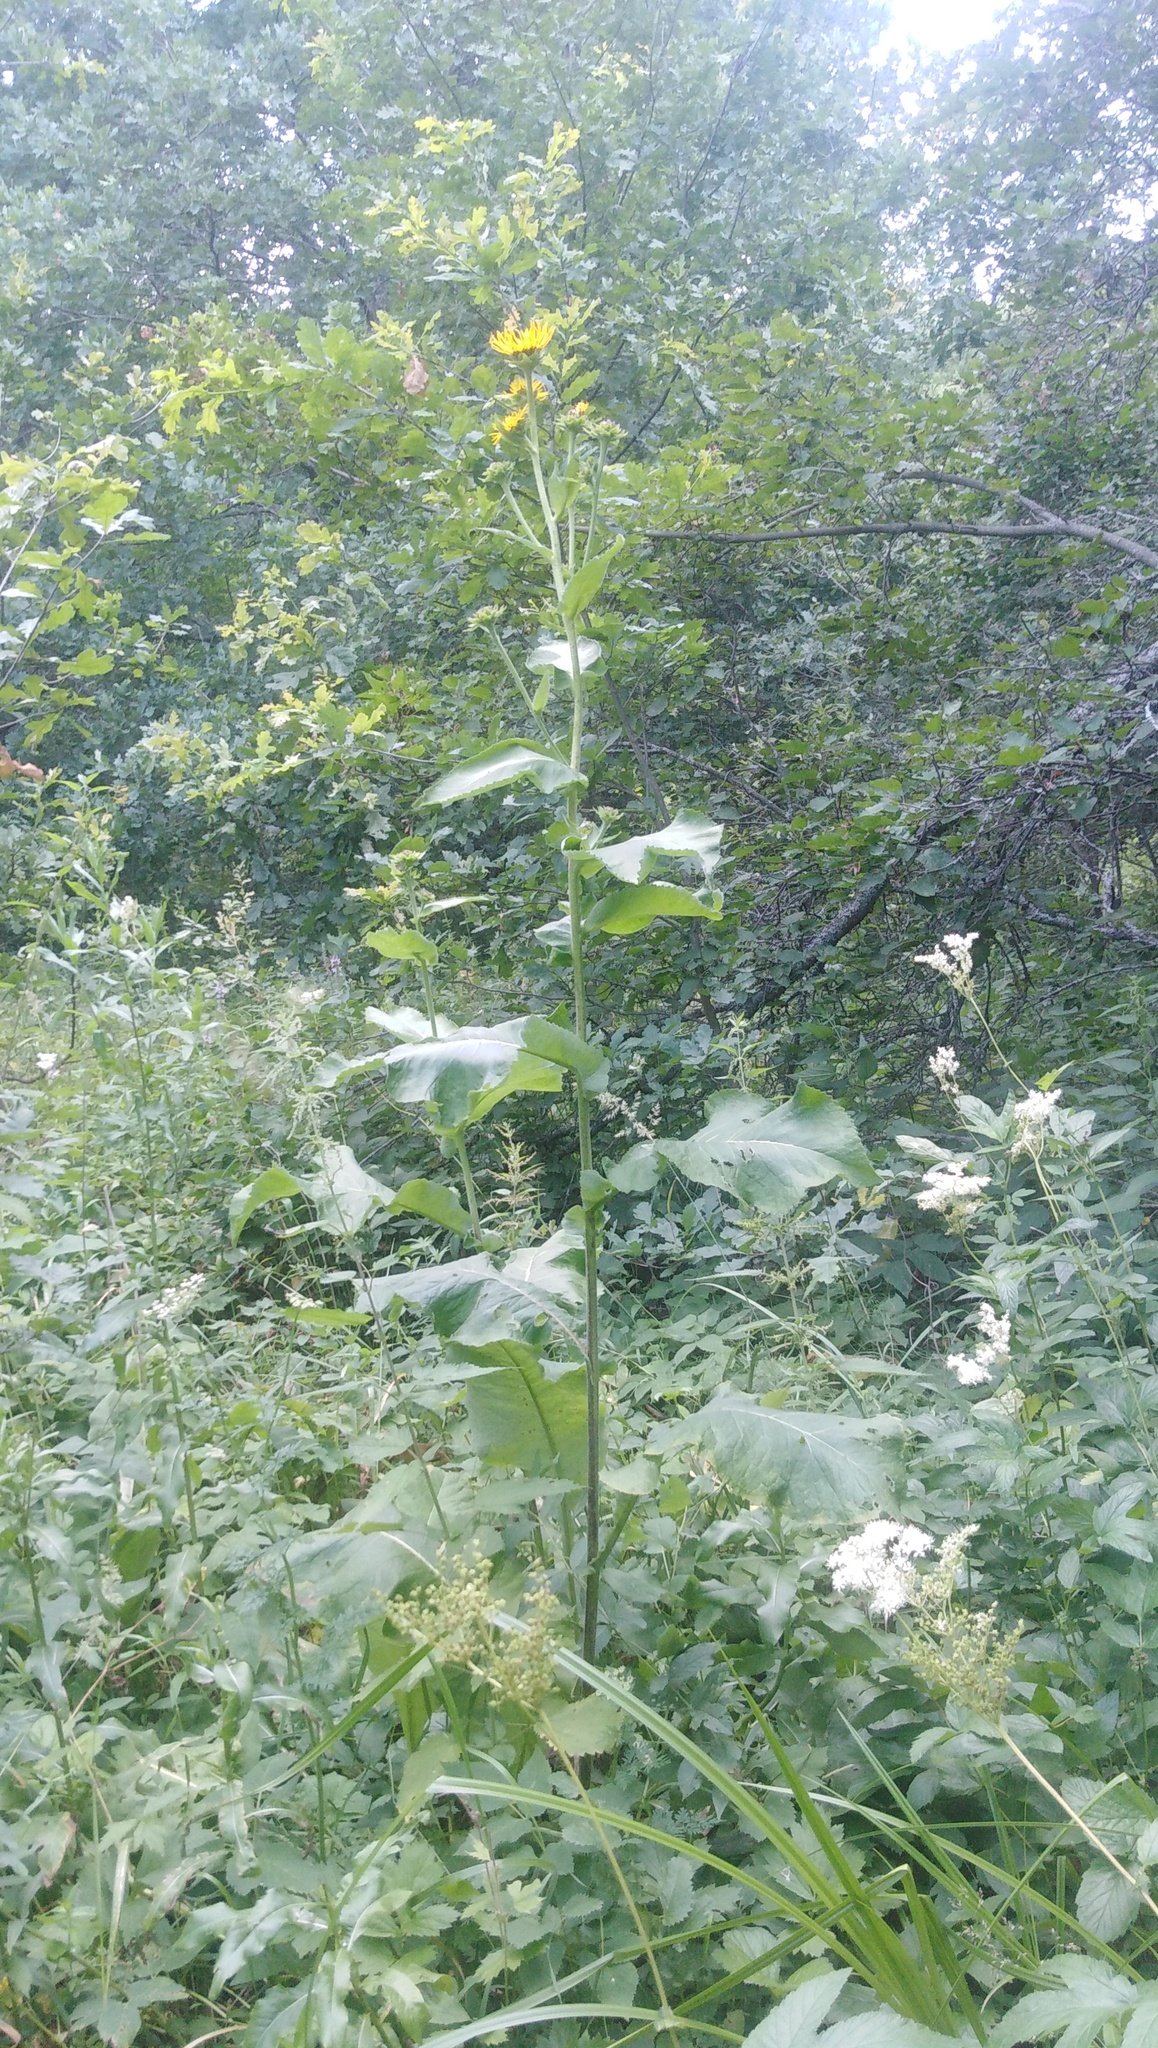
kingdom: Plantae
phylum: Tracheophyta
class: Magnoliopsida
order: Asterales
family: Asteraceae
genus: Inula
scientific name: Inula helenium
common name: Elecampane
